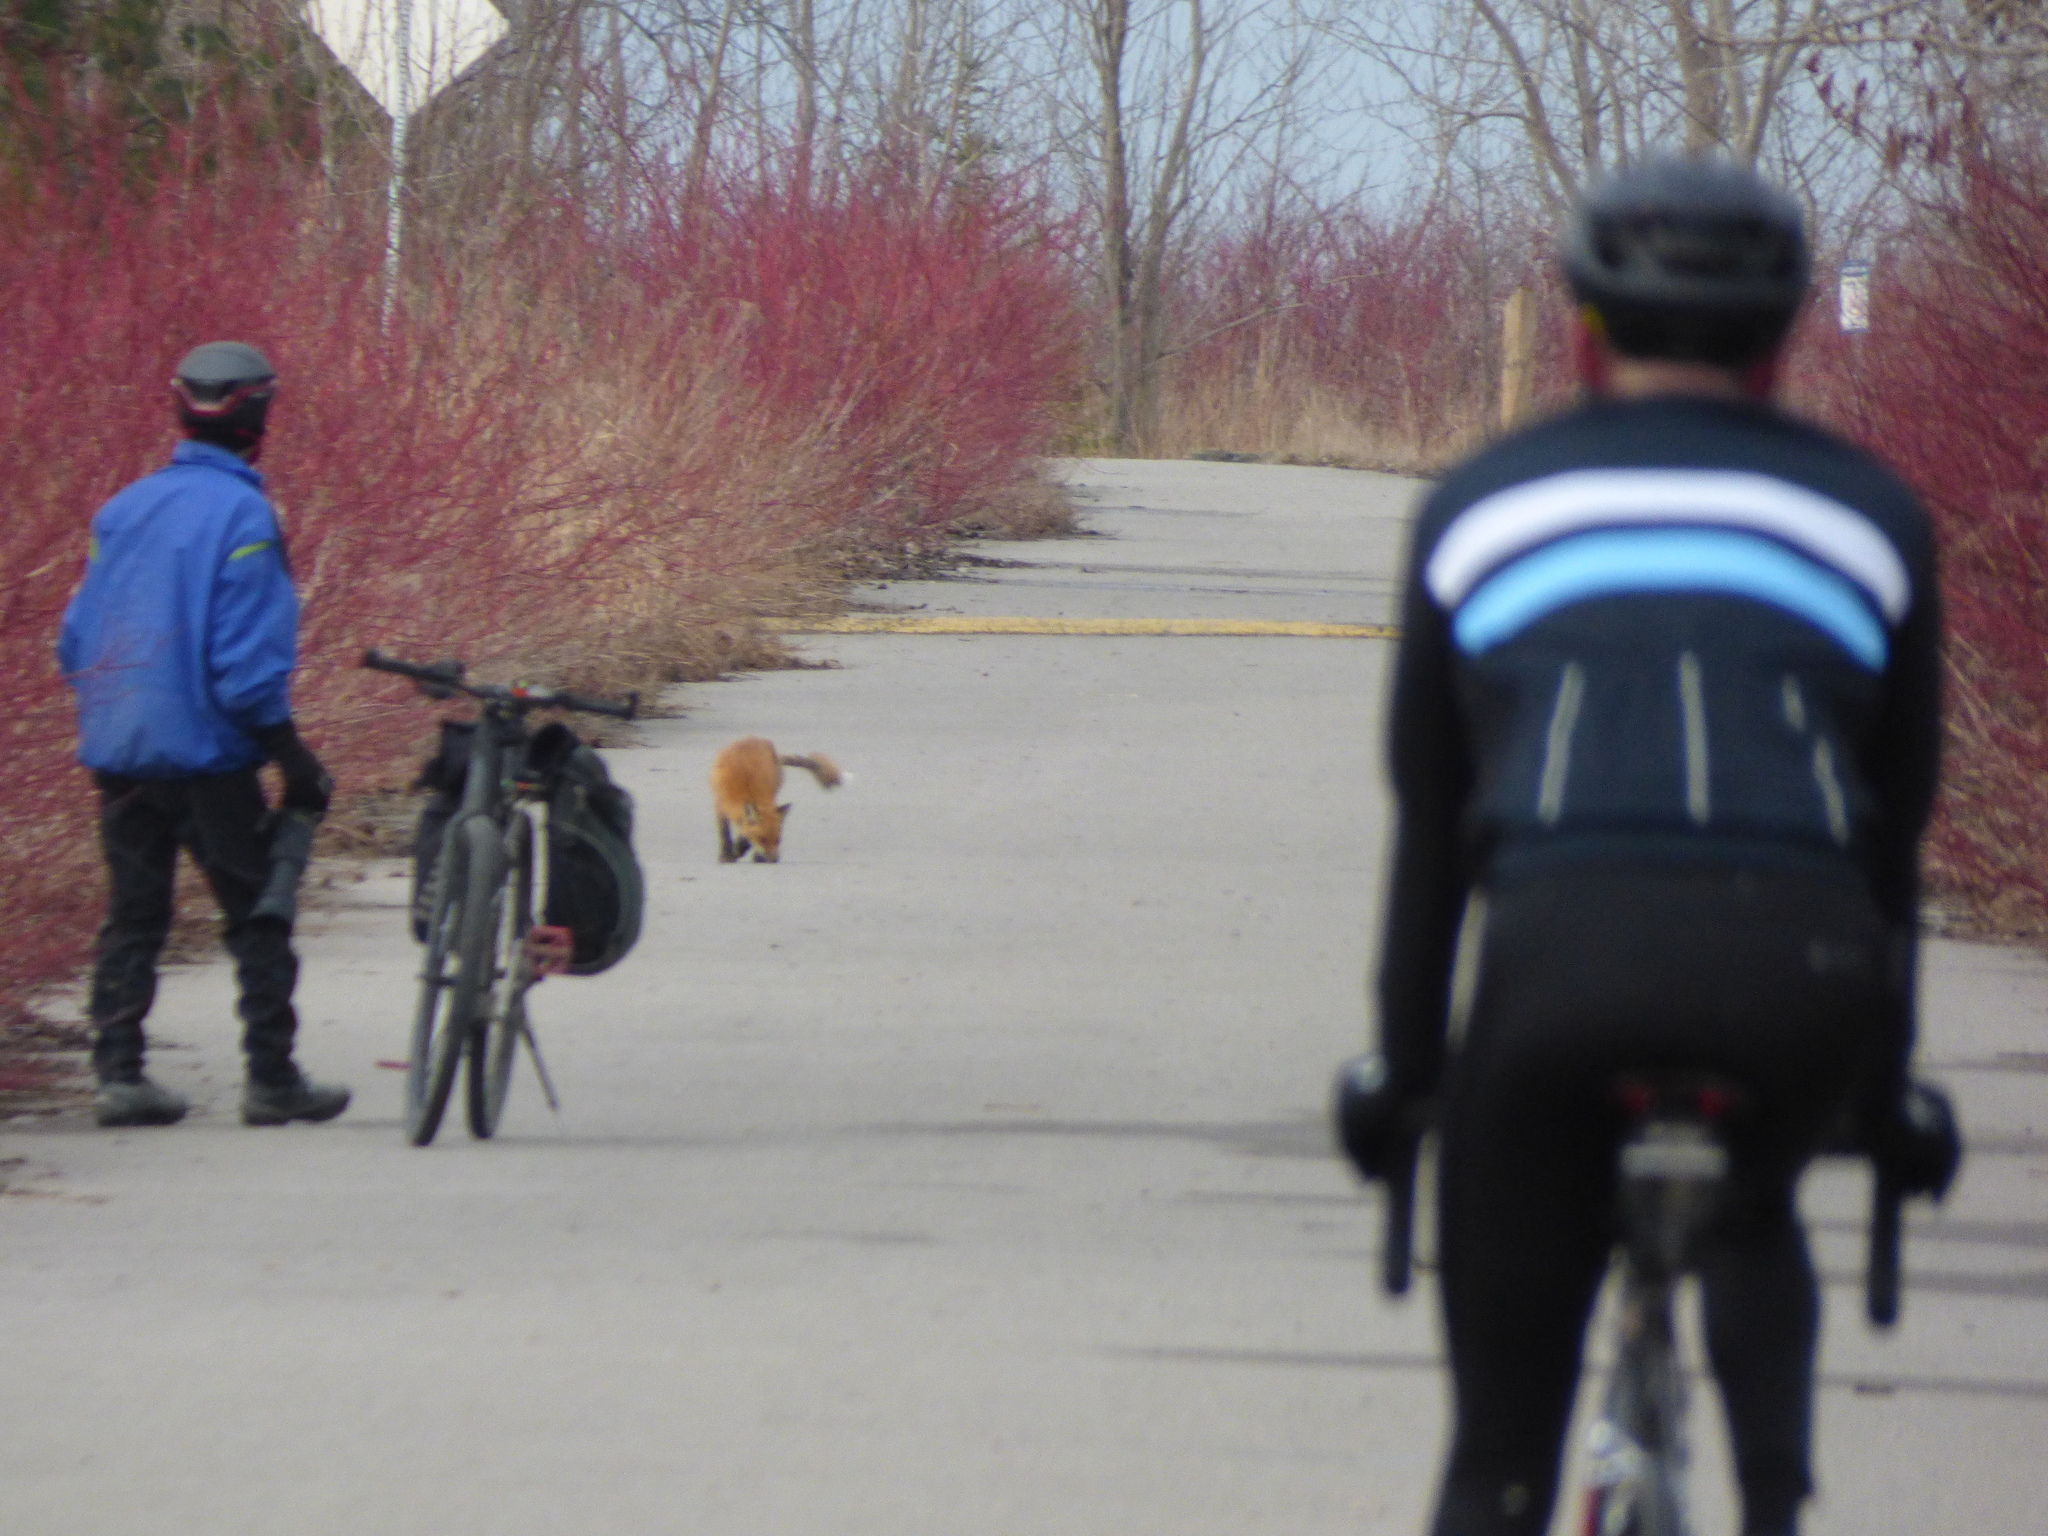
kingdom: Animalia
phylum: Chordata
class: Mammalia
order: Carnivora
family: Canidae
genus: Vulpes
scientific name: Vulpes vulpes
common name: Red fox
